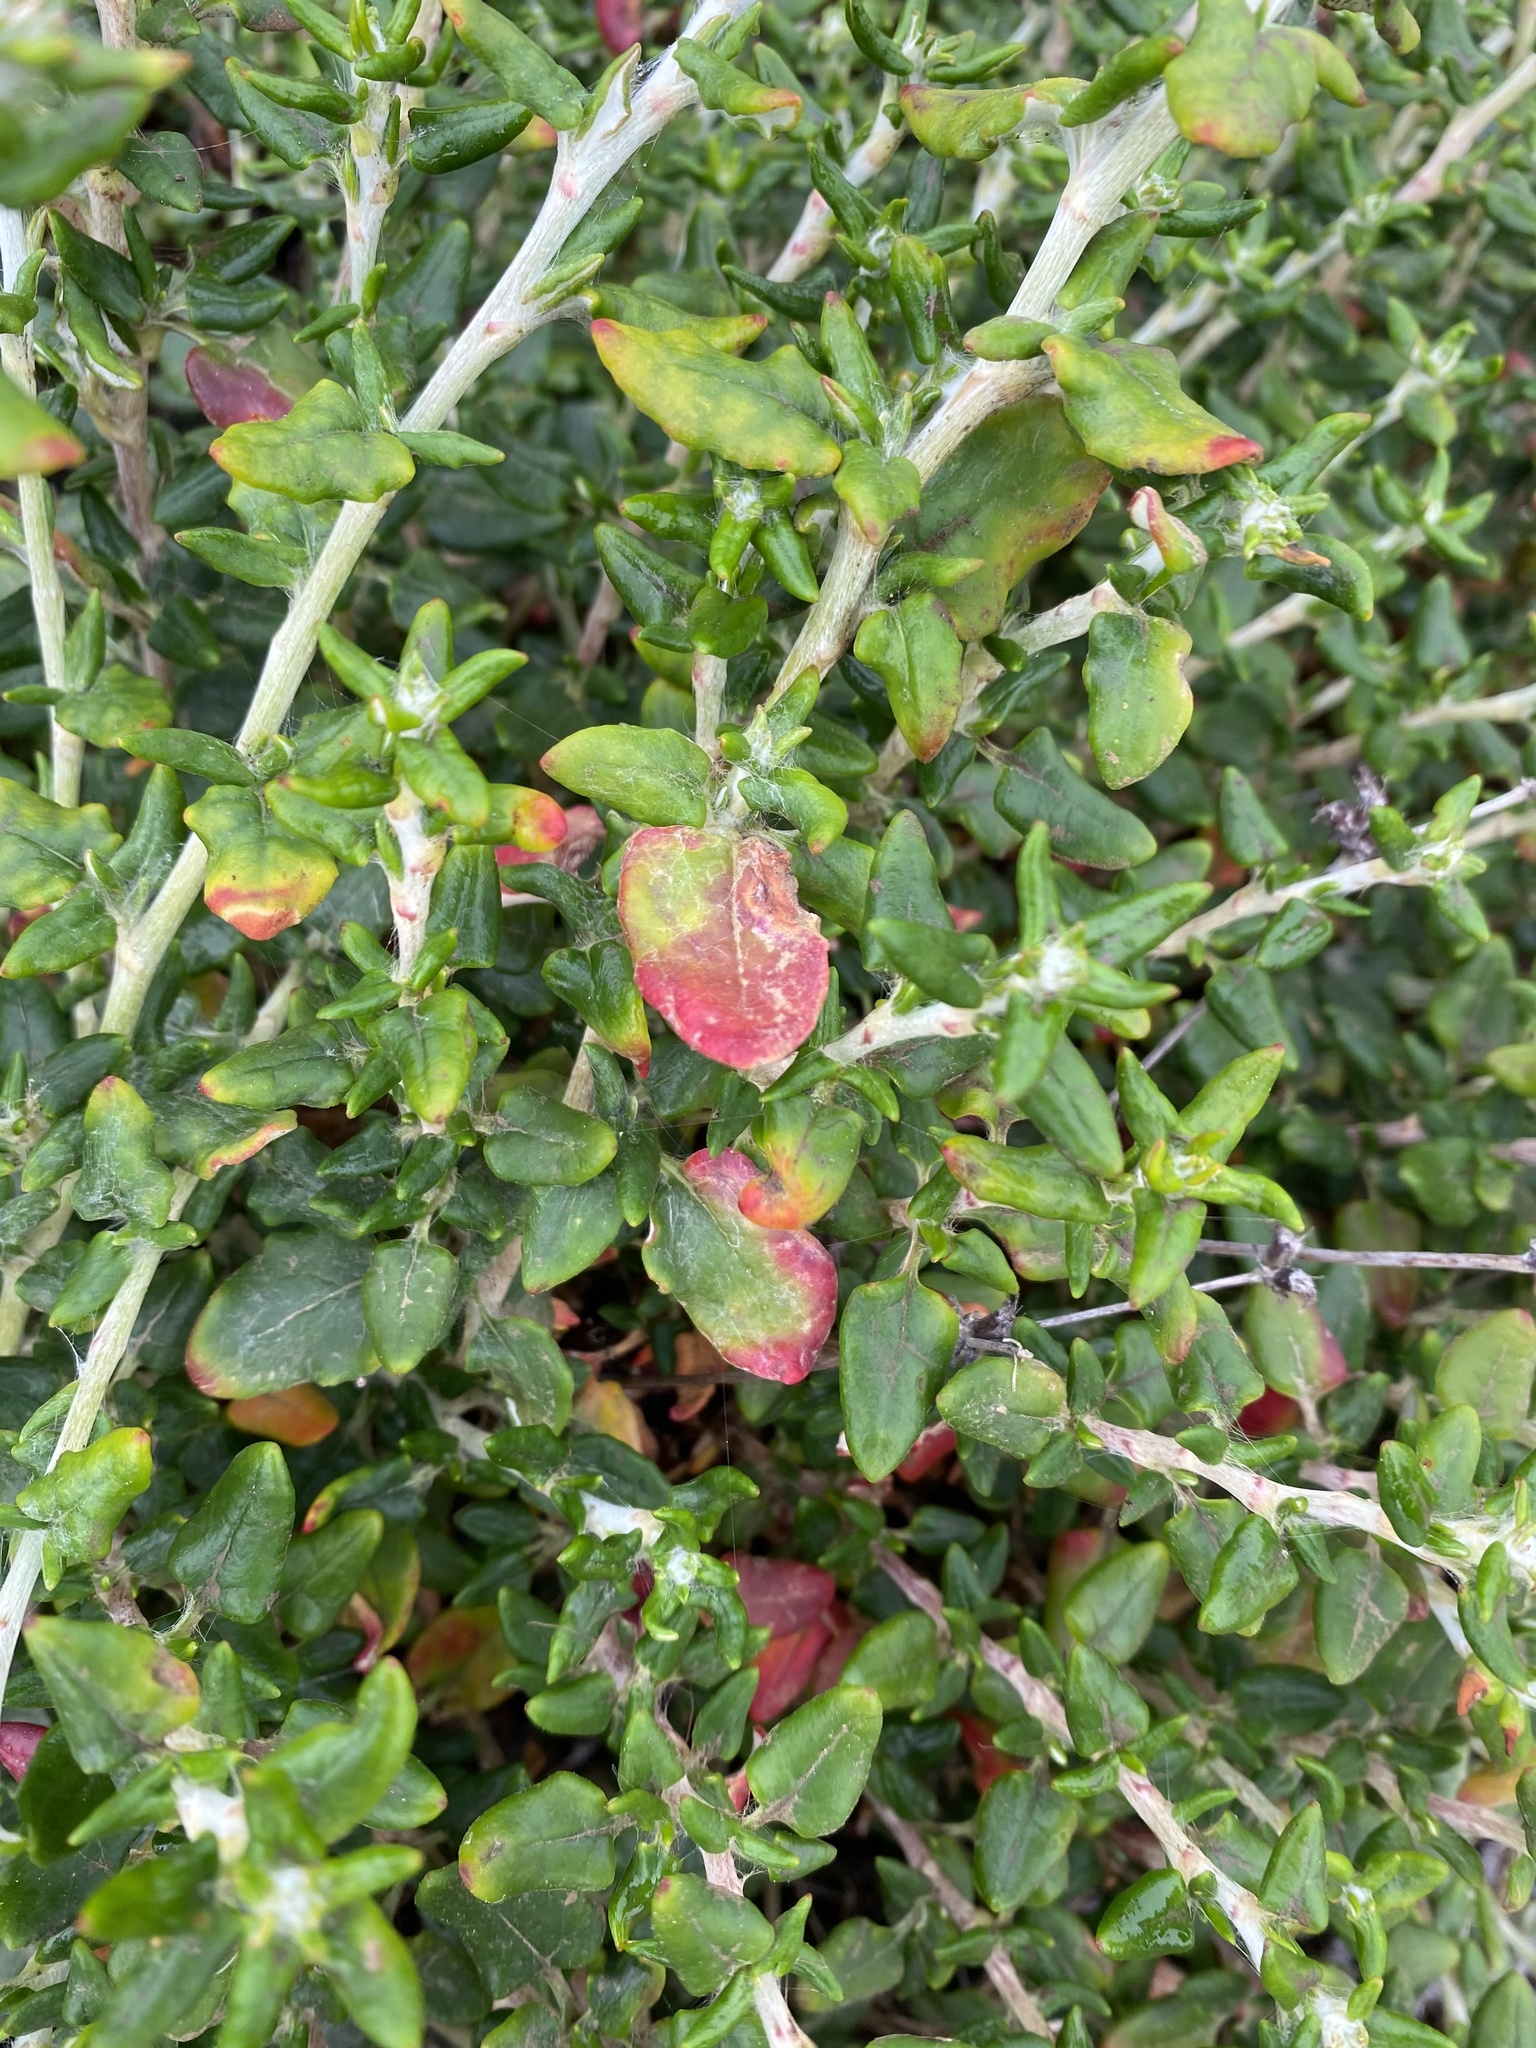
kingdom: Plantae
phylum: Tracheophyta
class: Magnoliopsida
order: Caryophyllales
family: Polygonaceae
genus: Eriogonum
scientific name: Eriogonum parvifolium
